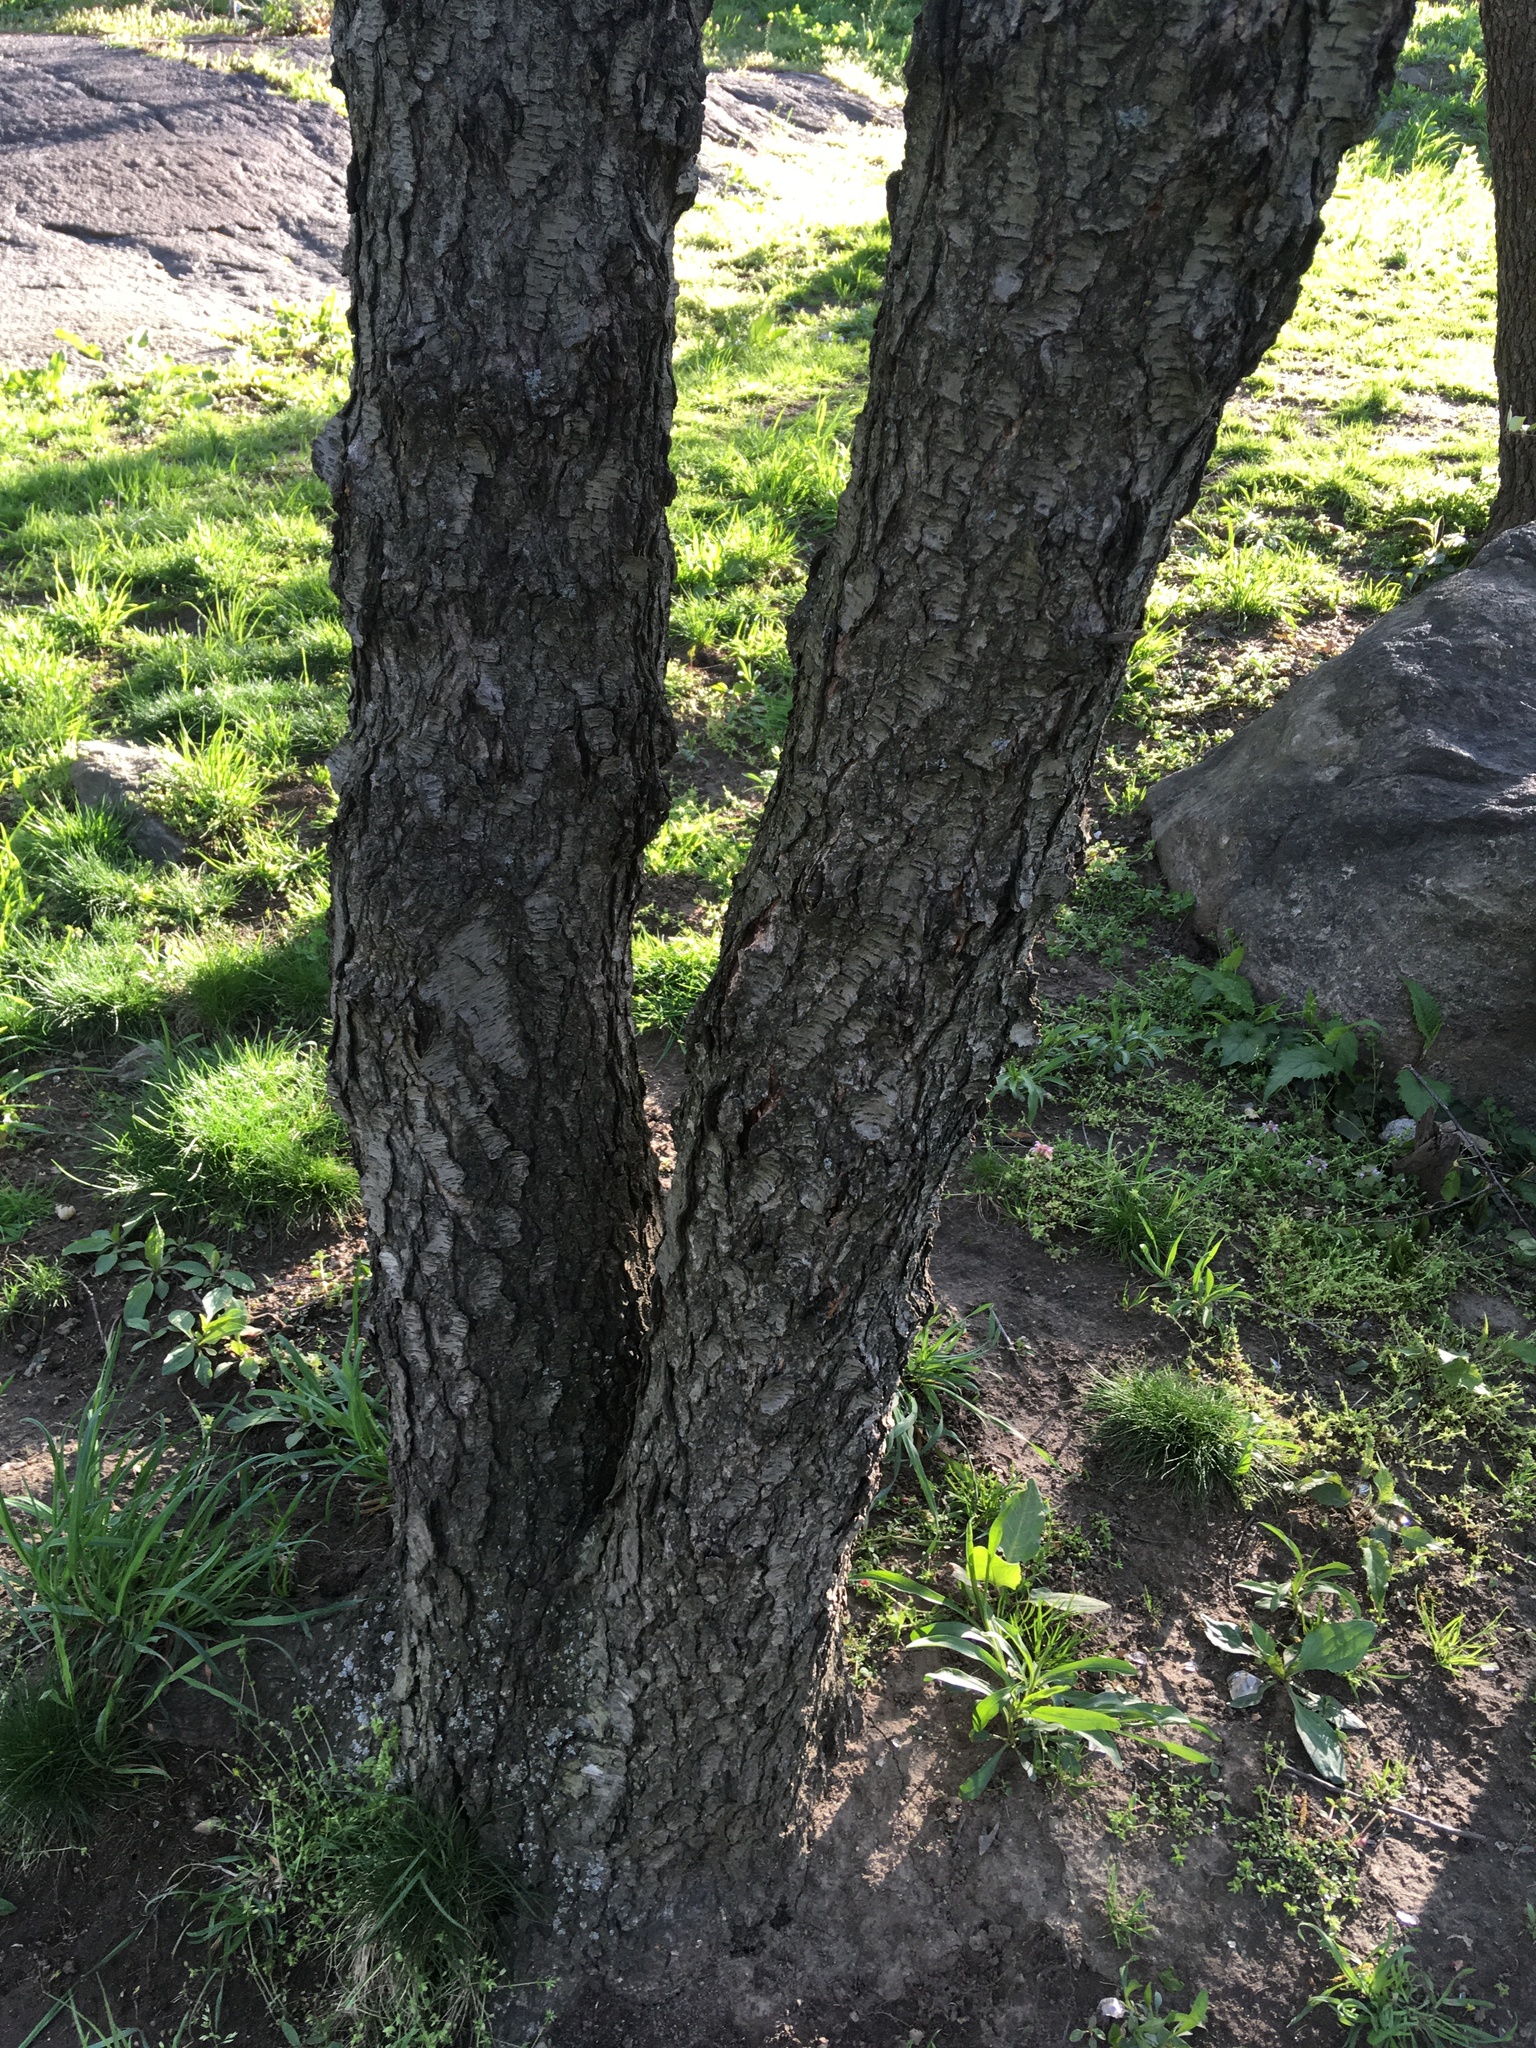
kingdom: Plantae
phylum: Tracheophyta
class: Magnoliopsida
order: Rosales
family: Rosaceae
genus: Prunus
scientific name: Prunus serotina
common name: Black cherry
